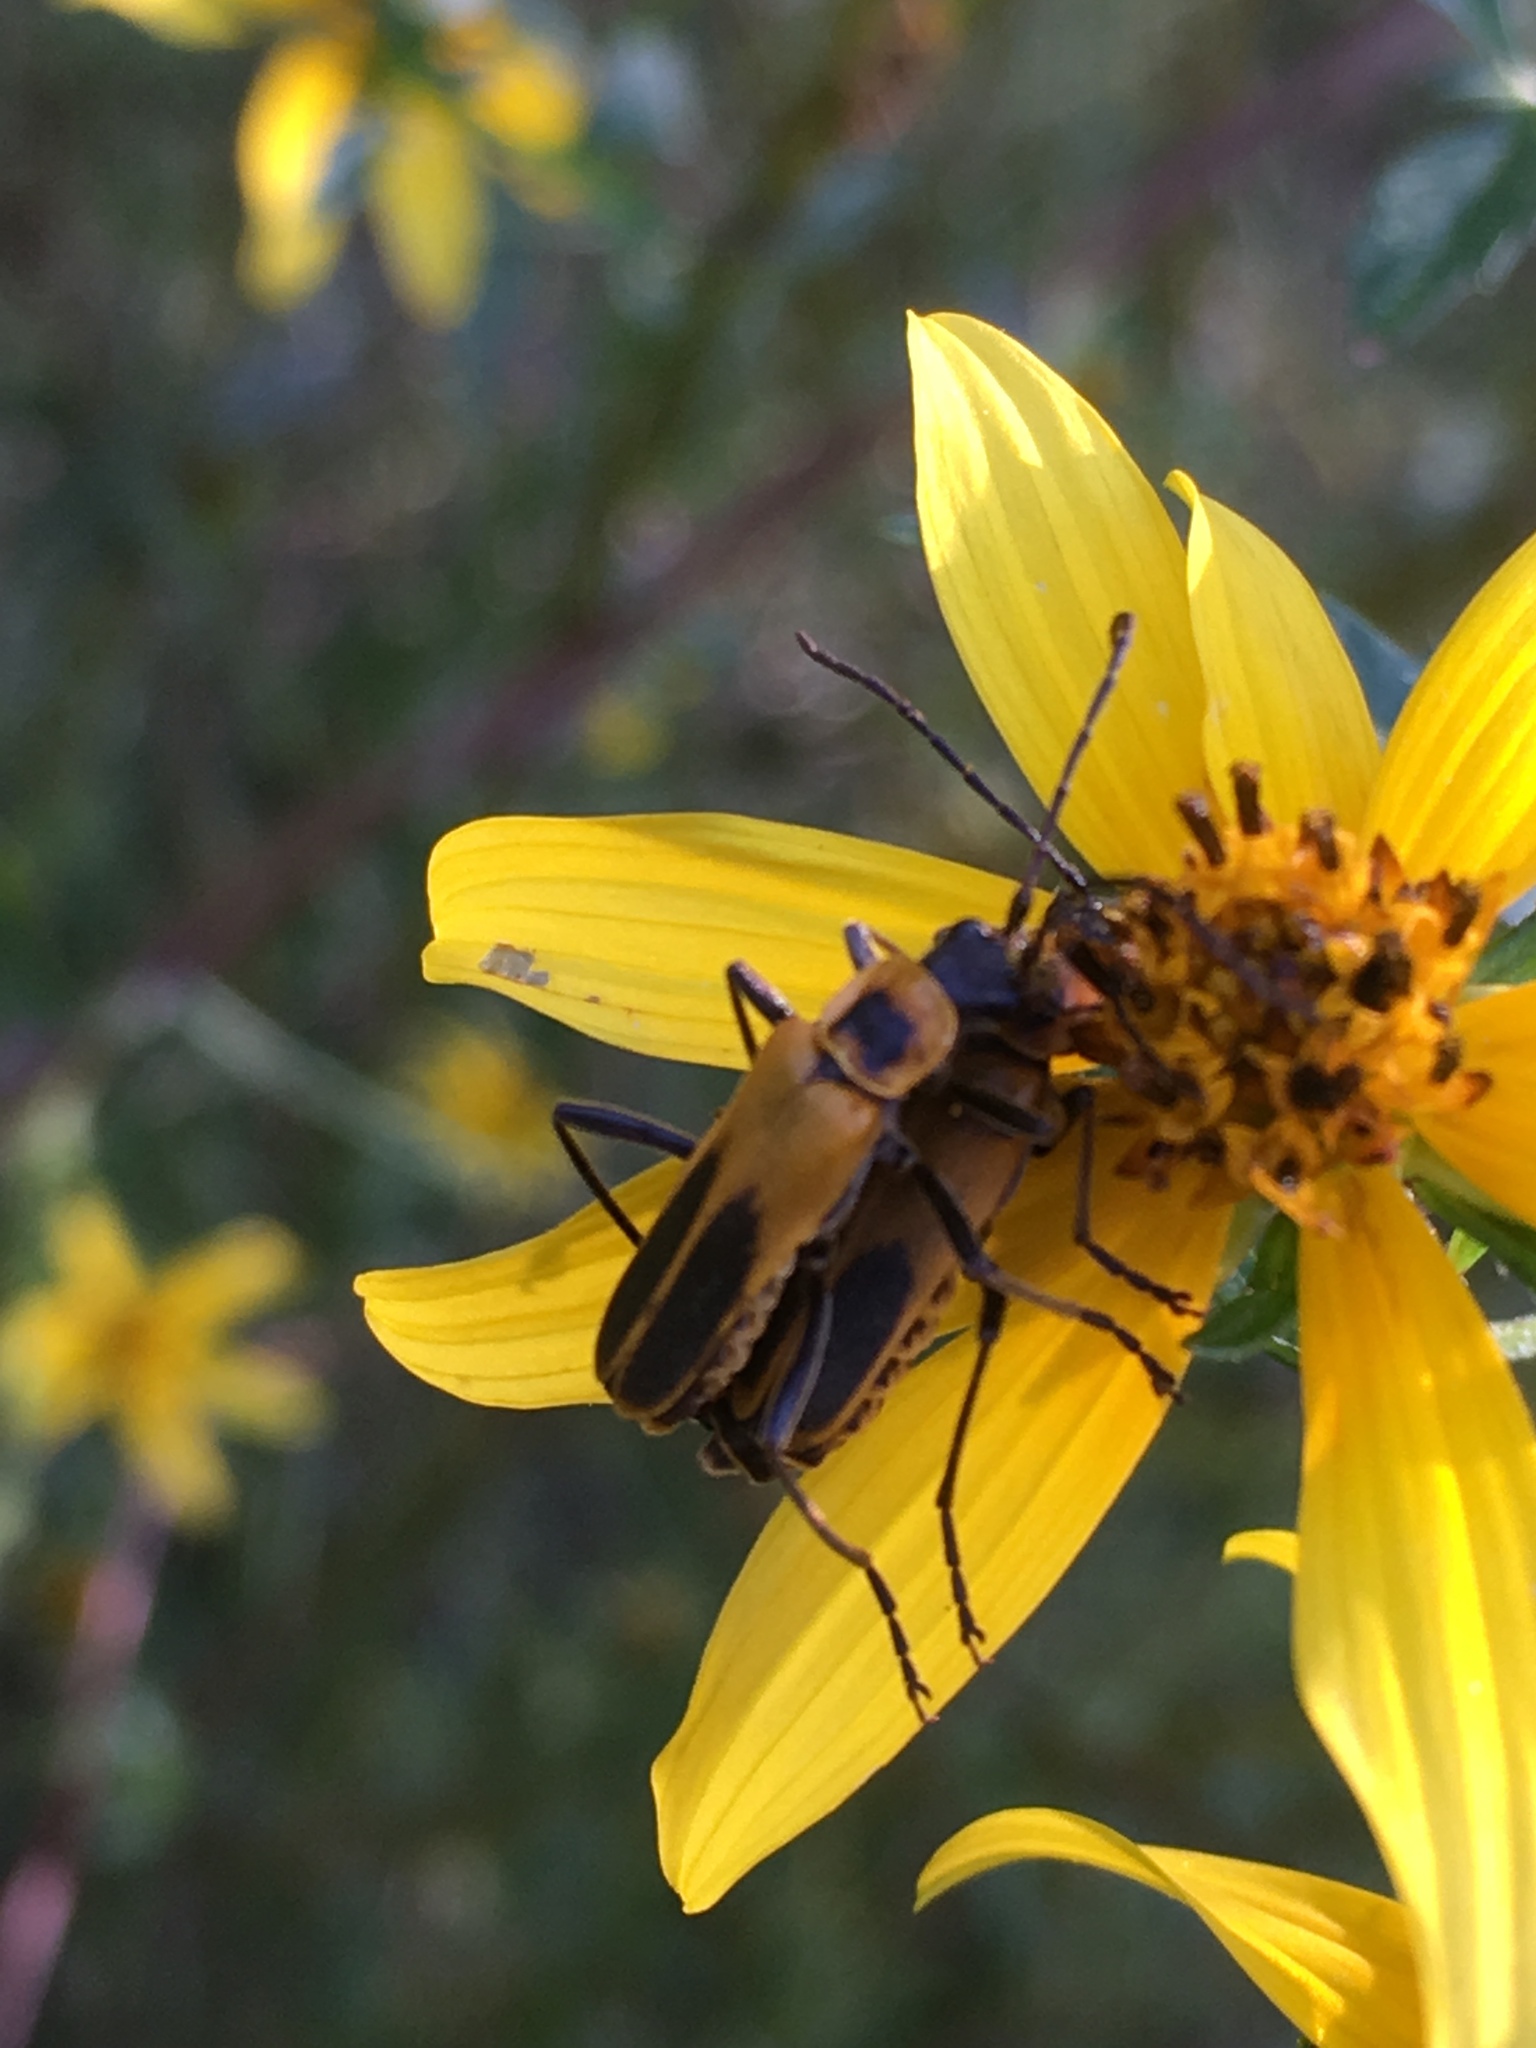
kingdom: Animalia
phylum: Arthropoda
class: Insecta
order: Coleoptera
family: Cantharidae
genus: Chauliognathus
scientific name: Chauliognathus pensylvanicus
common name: Goldenrod soldier beetle
